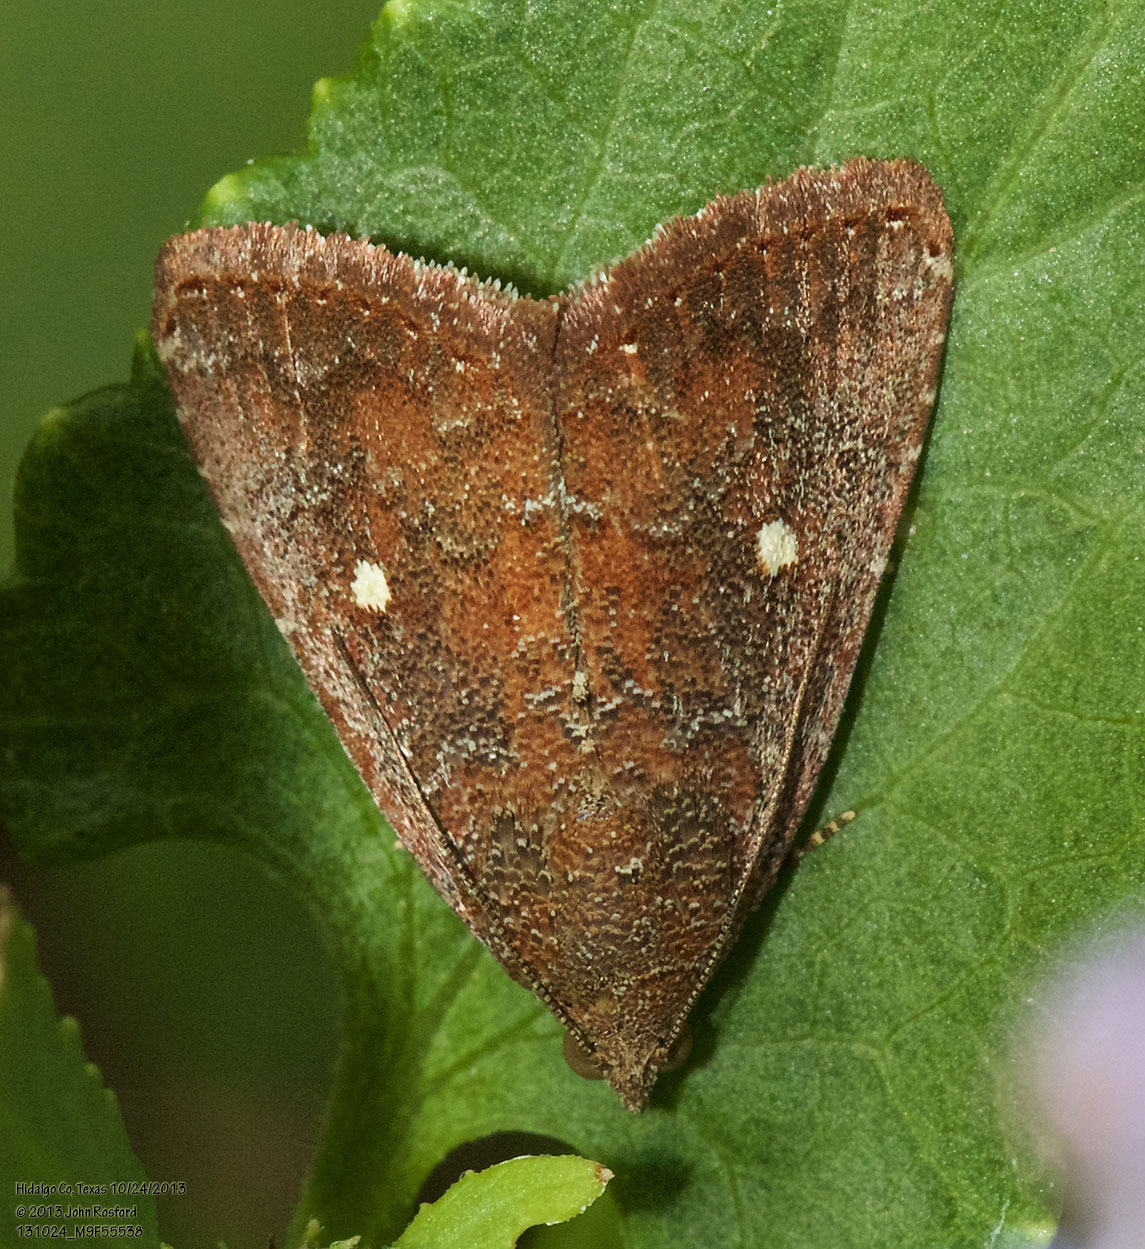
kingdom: Animalia
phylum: Arthropoda
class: Insecta
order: Lepidoptera
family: Noctuidae
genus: Amyna
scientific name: Amyna stricta
